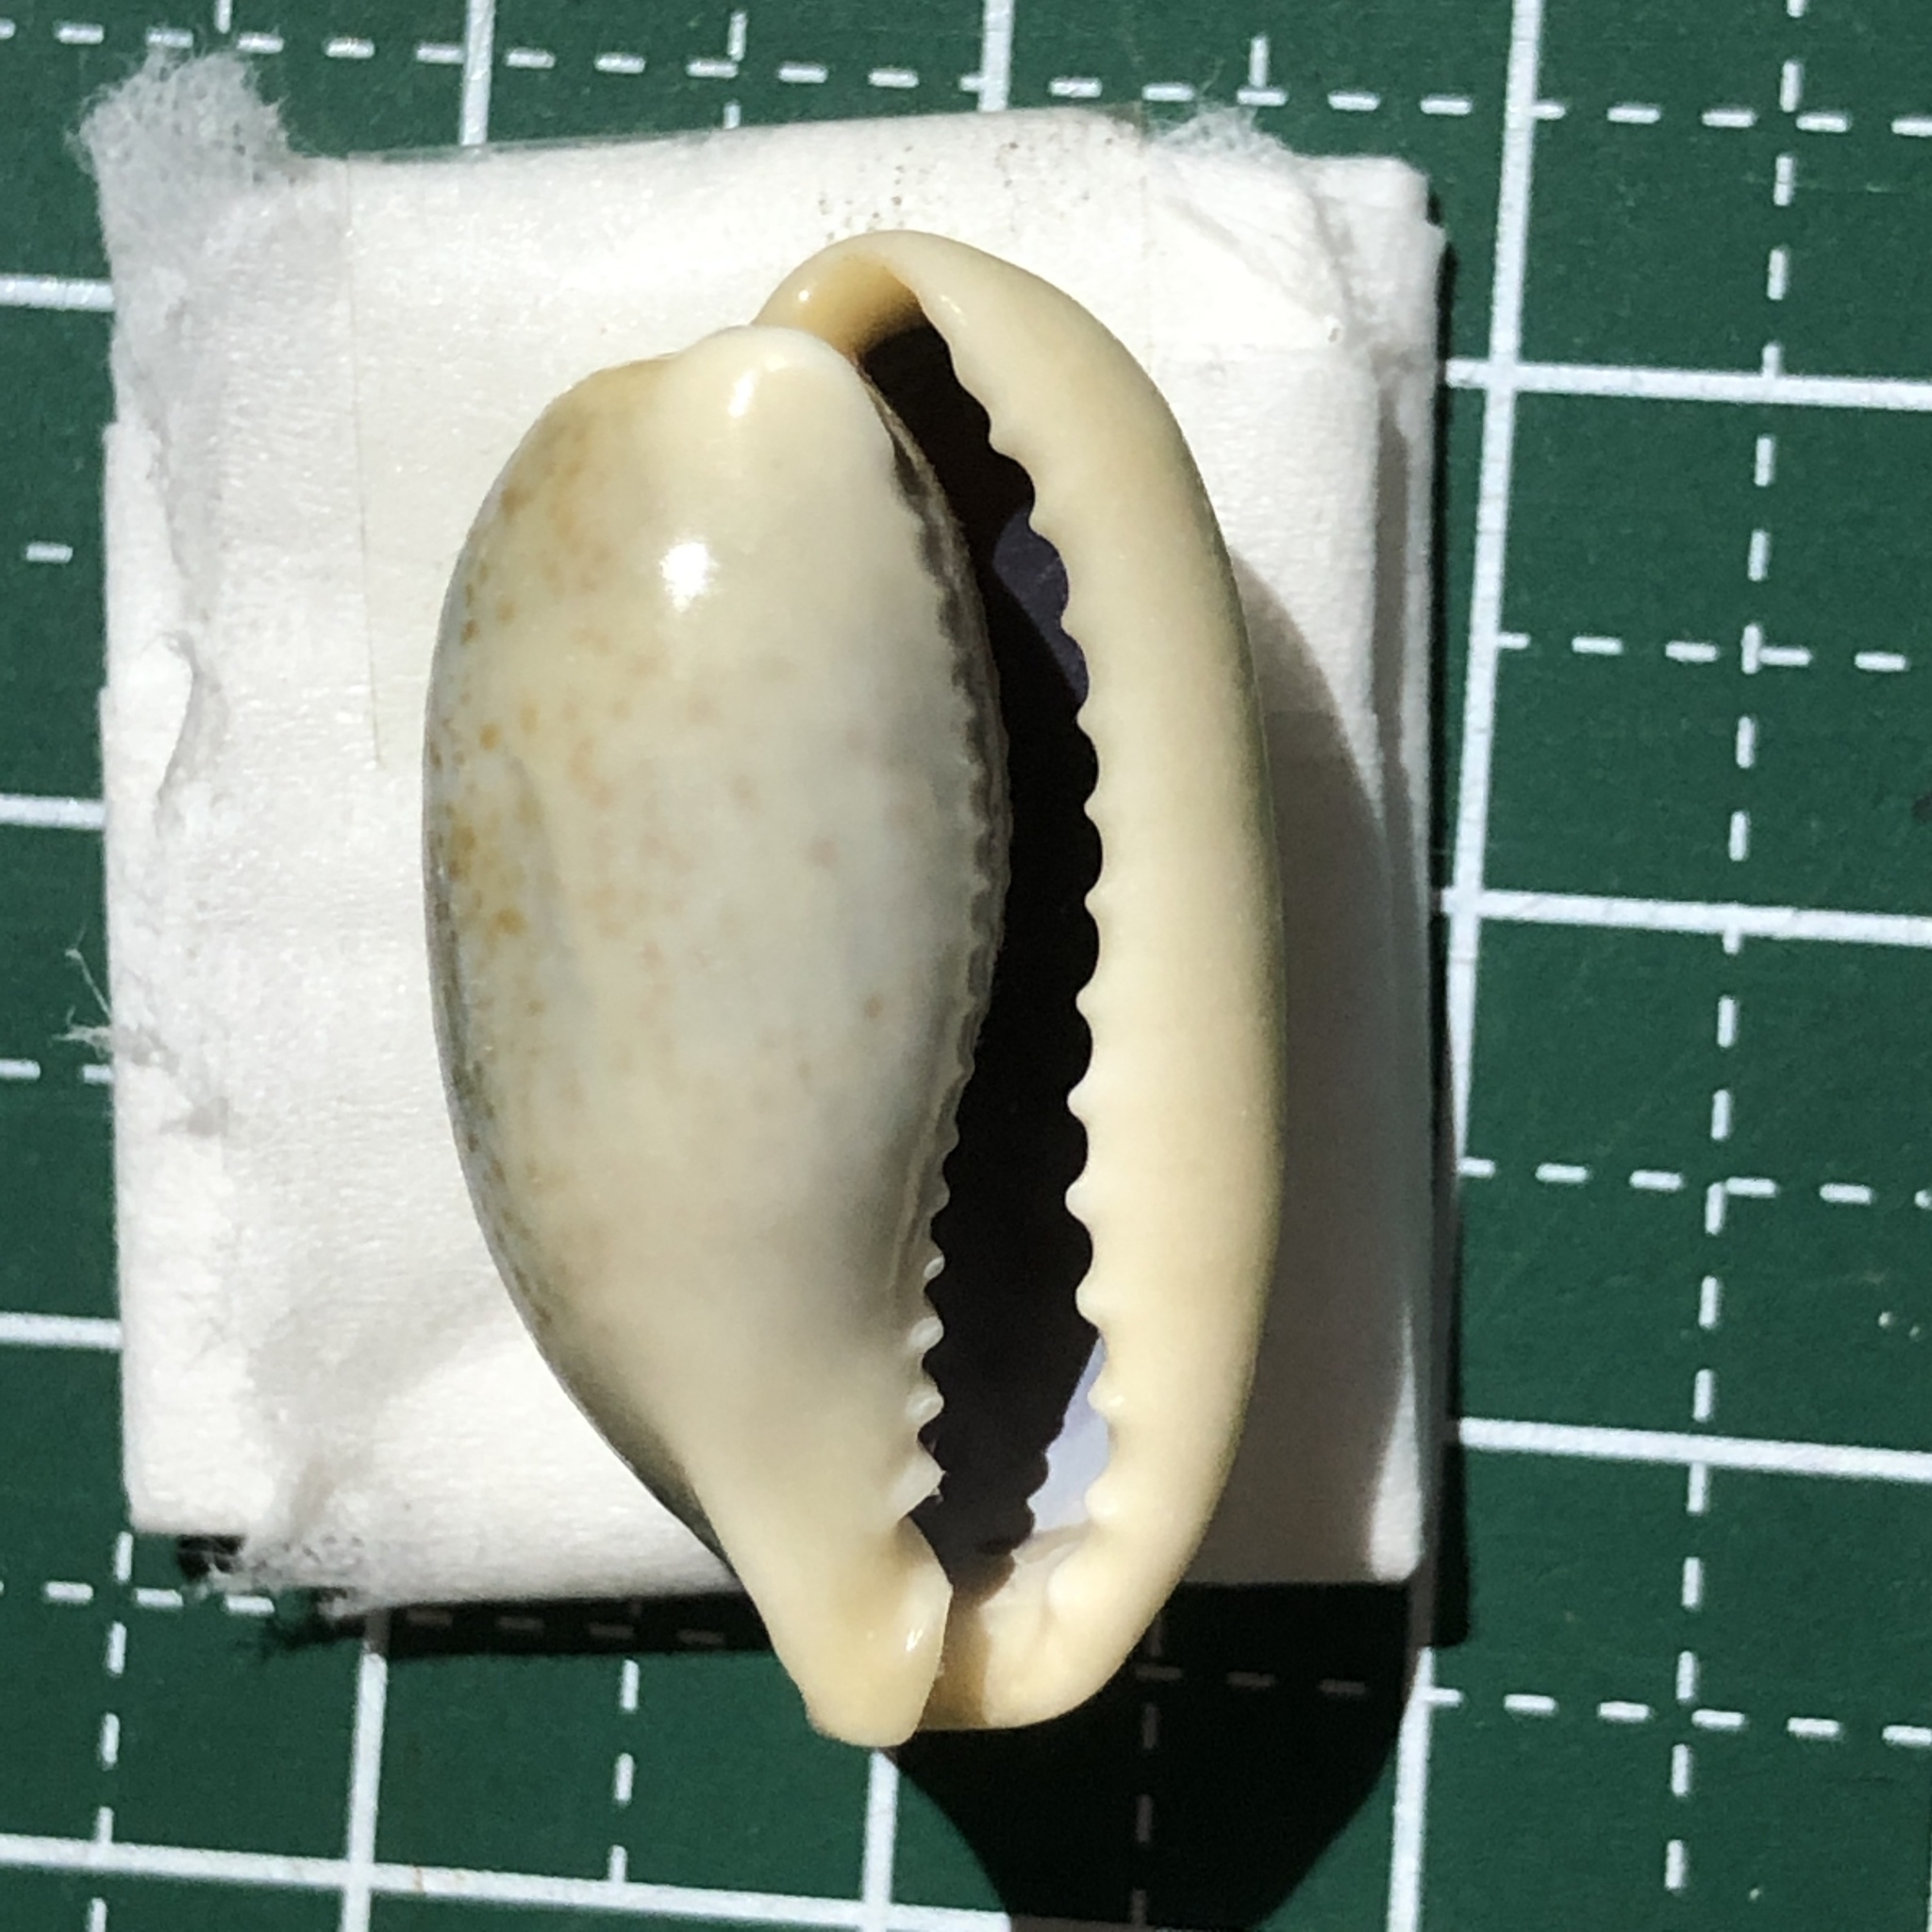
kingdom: Animalia
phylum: Mollusca
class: Gastropoda
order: Littorinimorpha
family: Cypraeidae
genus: Erronea
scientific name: Erronea errones
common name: Mistaken cowrie
